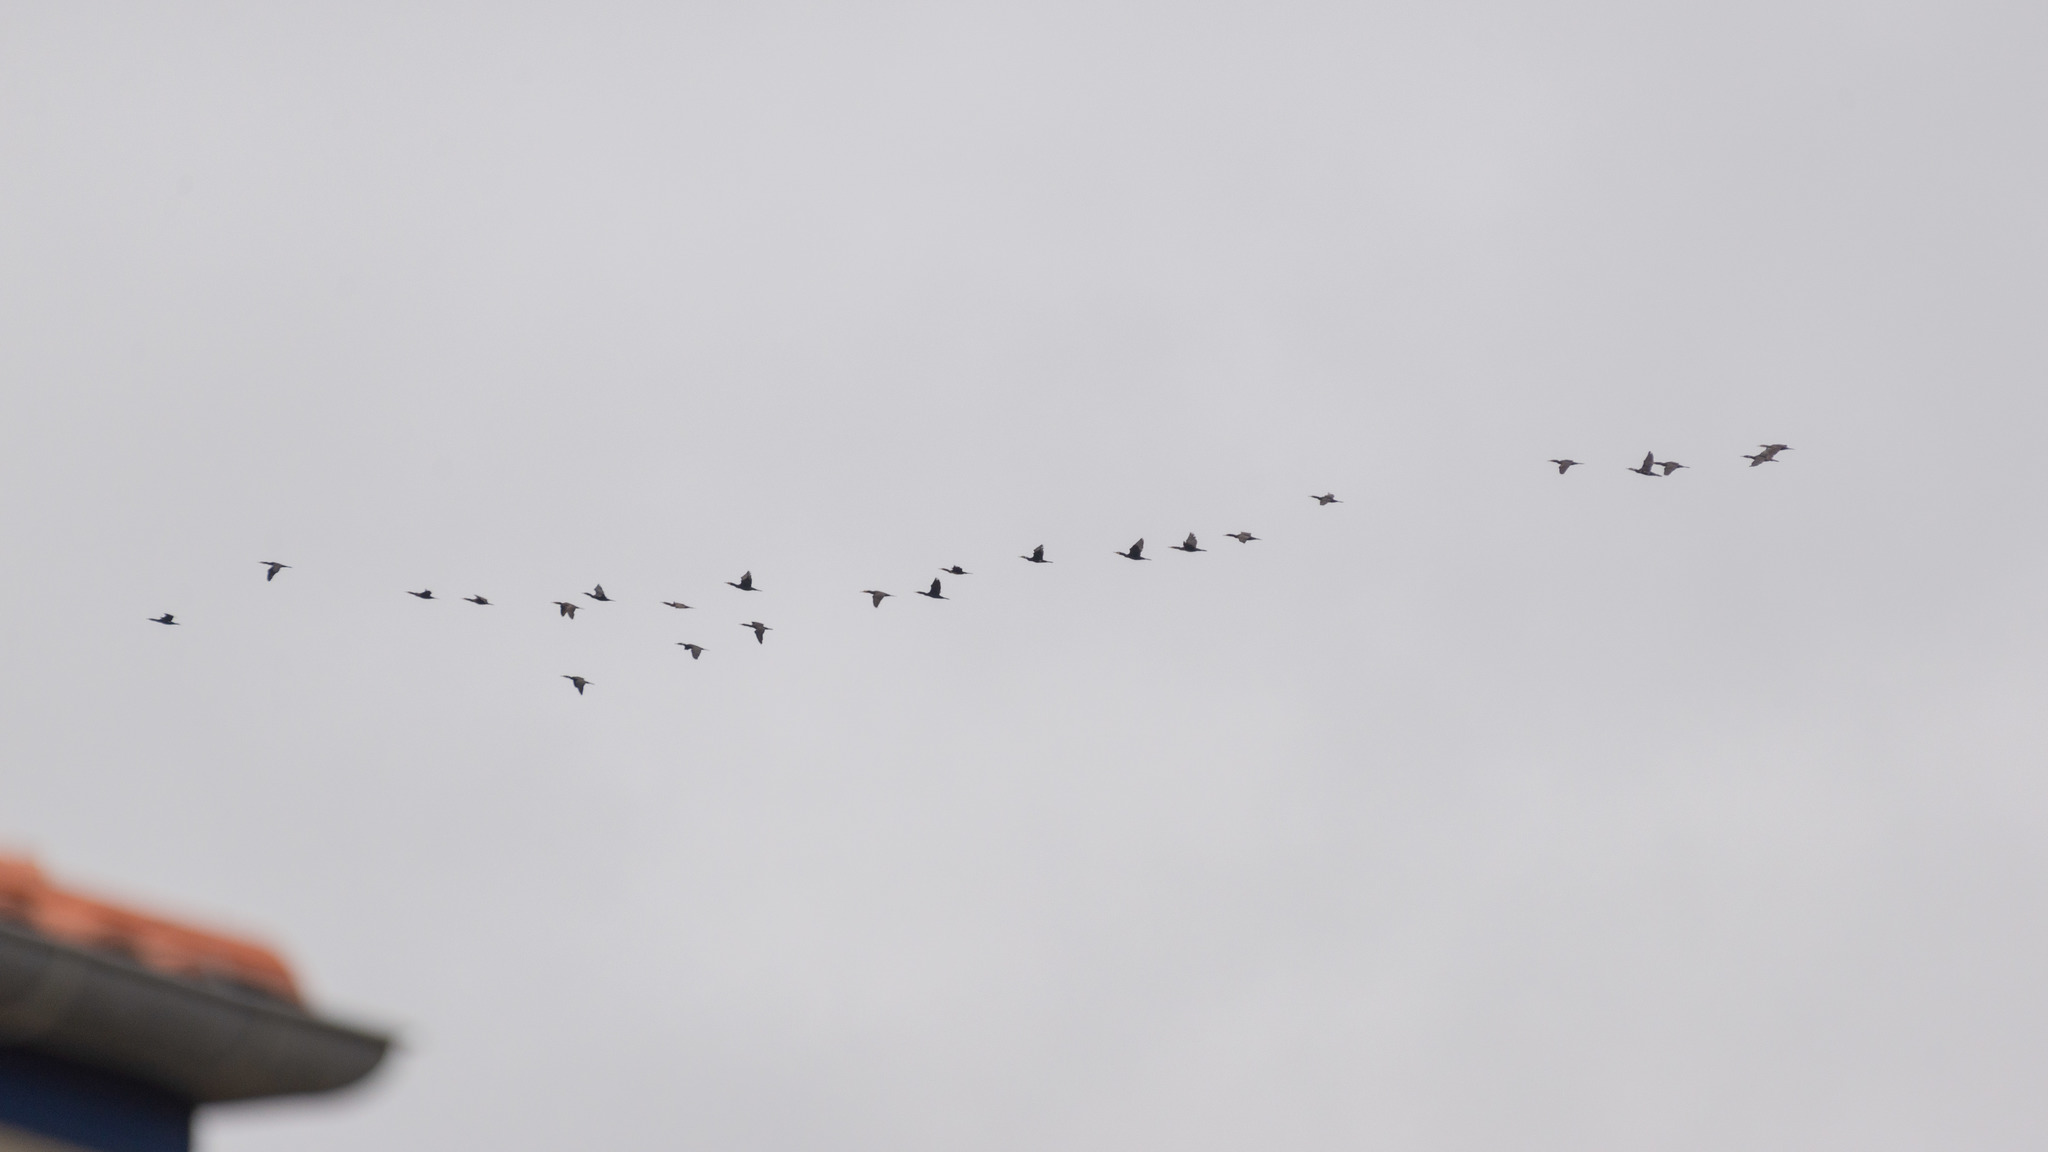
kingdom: Animalia
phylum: Chordata
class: Aves
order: Suliformes
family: Phalacrocoracidae
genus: Phalacrocorax
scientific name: Phalacrocorax carbo
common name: Great cormorant
